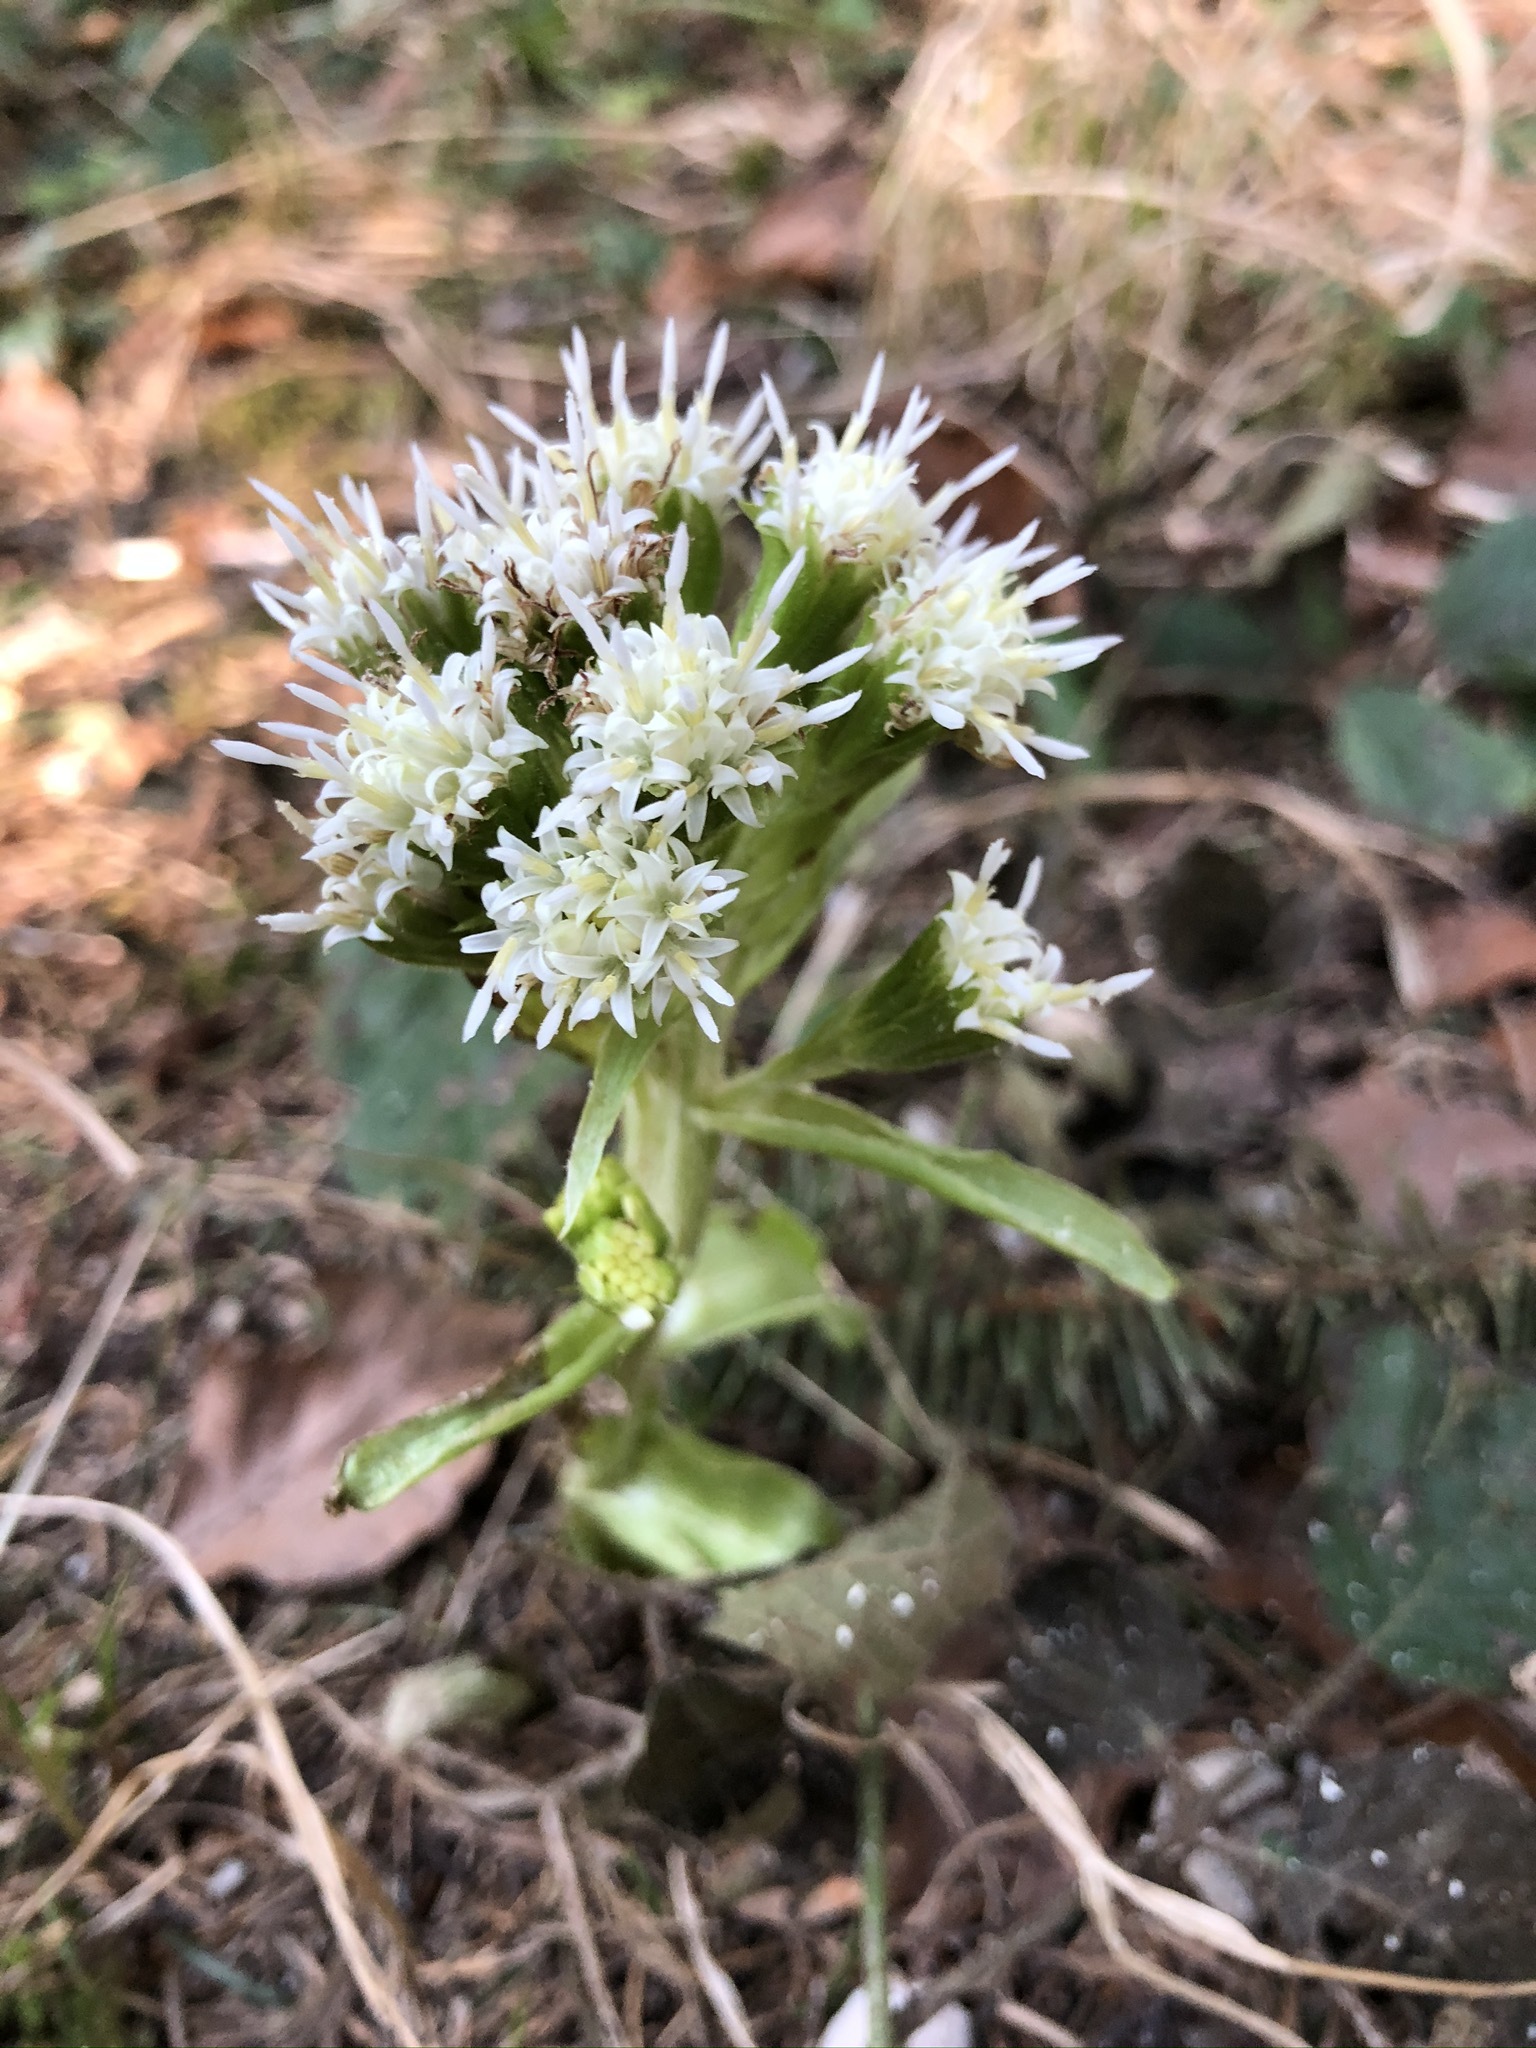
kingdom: Plantae
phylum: Tracheophyta
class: Magnoliopsida
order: Asterales
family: Asteraceae
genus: Petasites
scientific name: Petasites albus
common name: White butterbur
